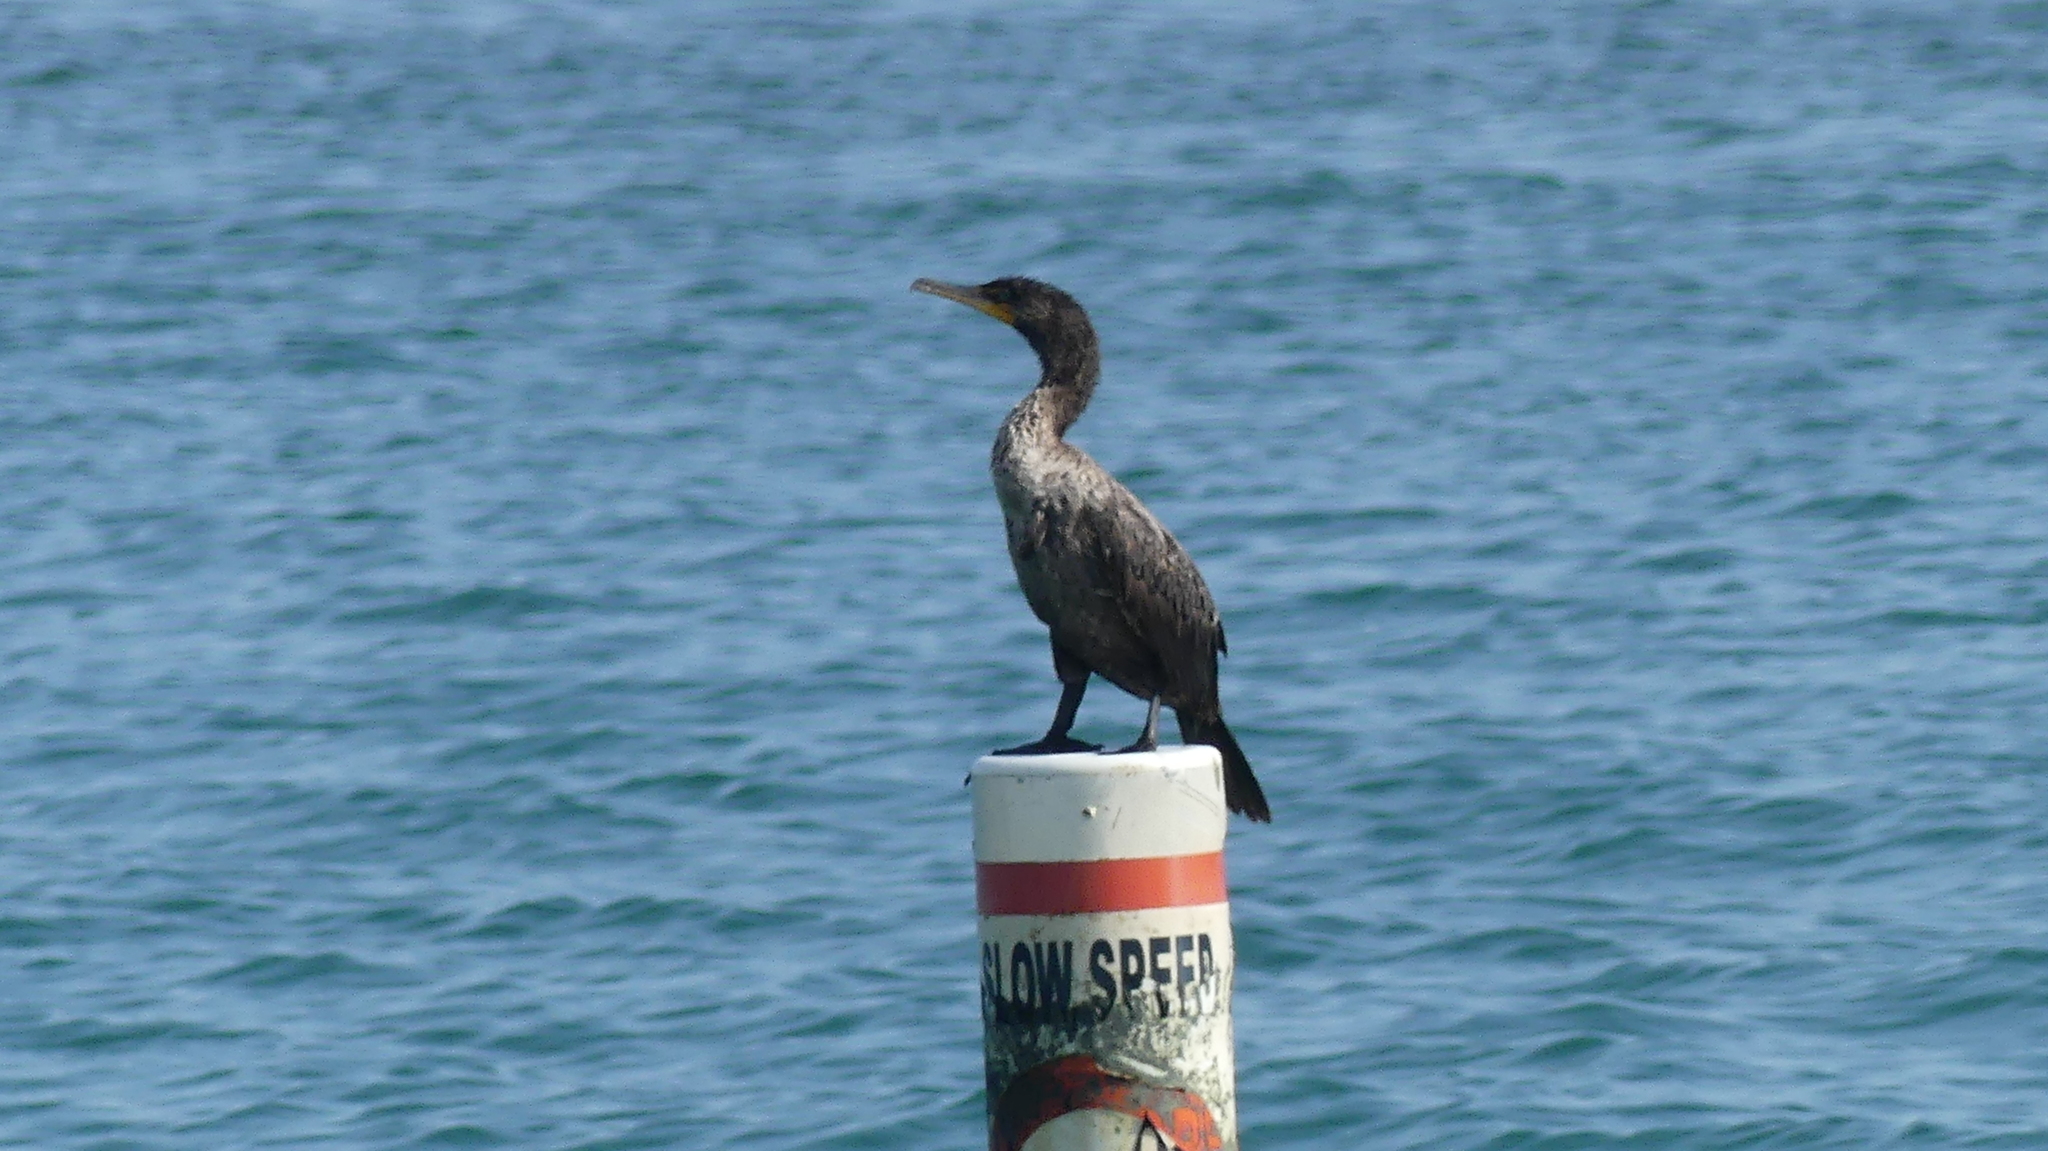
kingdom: Animalia
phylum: Chordata
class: Aves
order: Suliformes
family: Phalacrocoracidae
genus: Phalacrocorax
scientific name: Phalacrocorax auritus
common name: Double-crested cormorant
